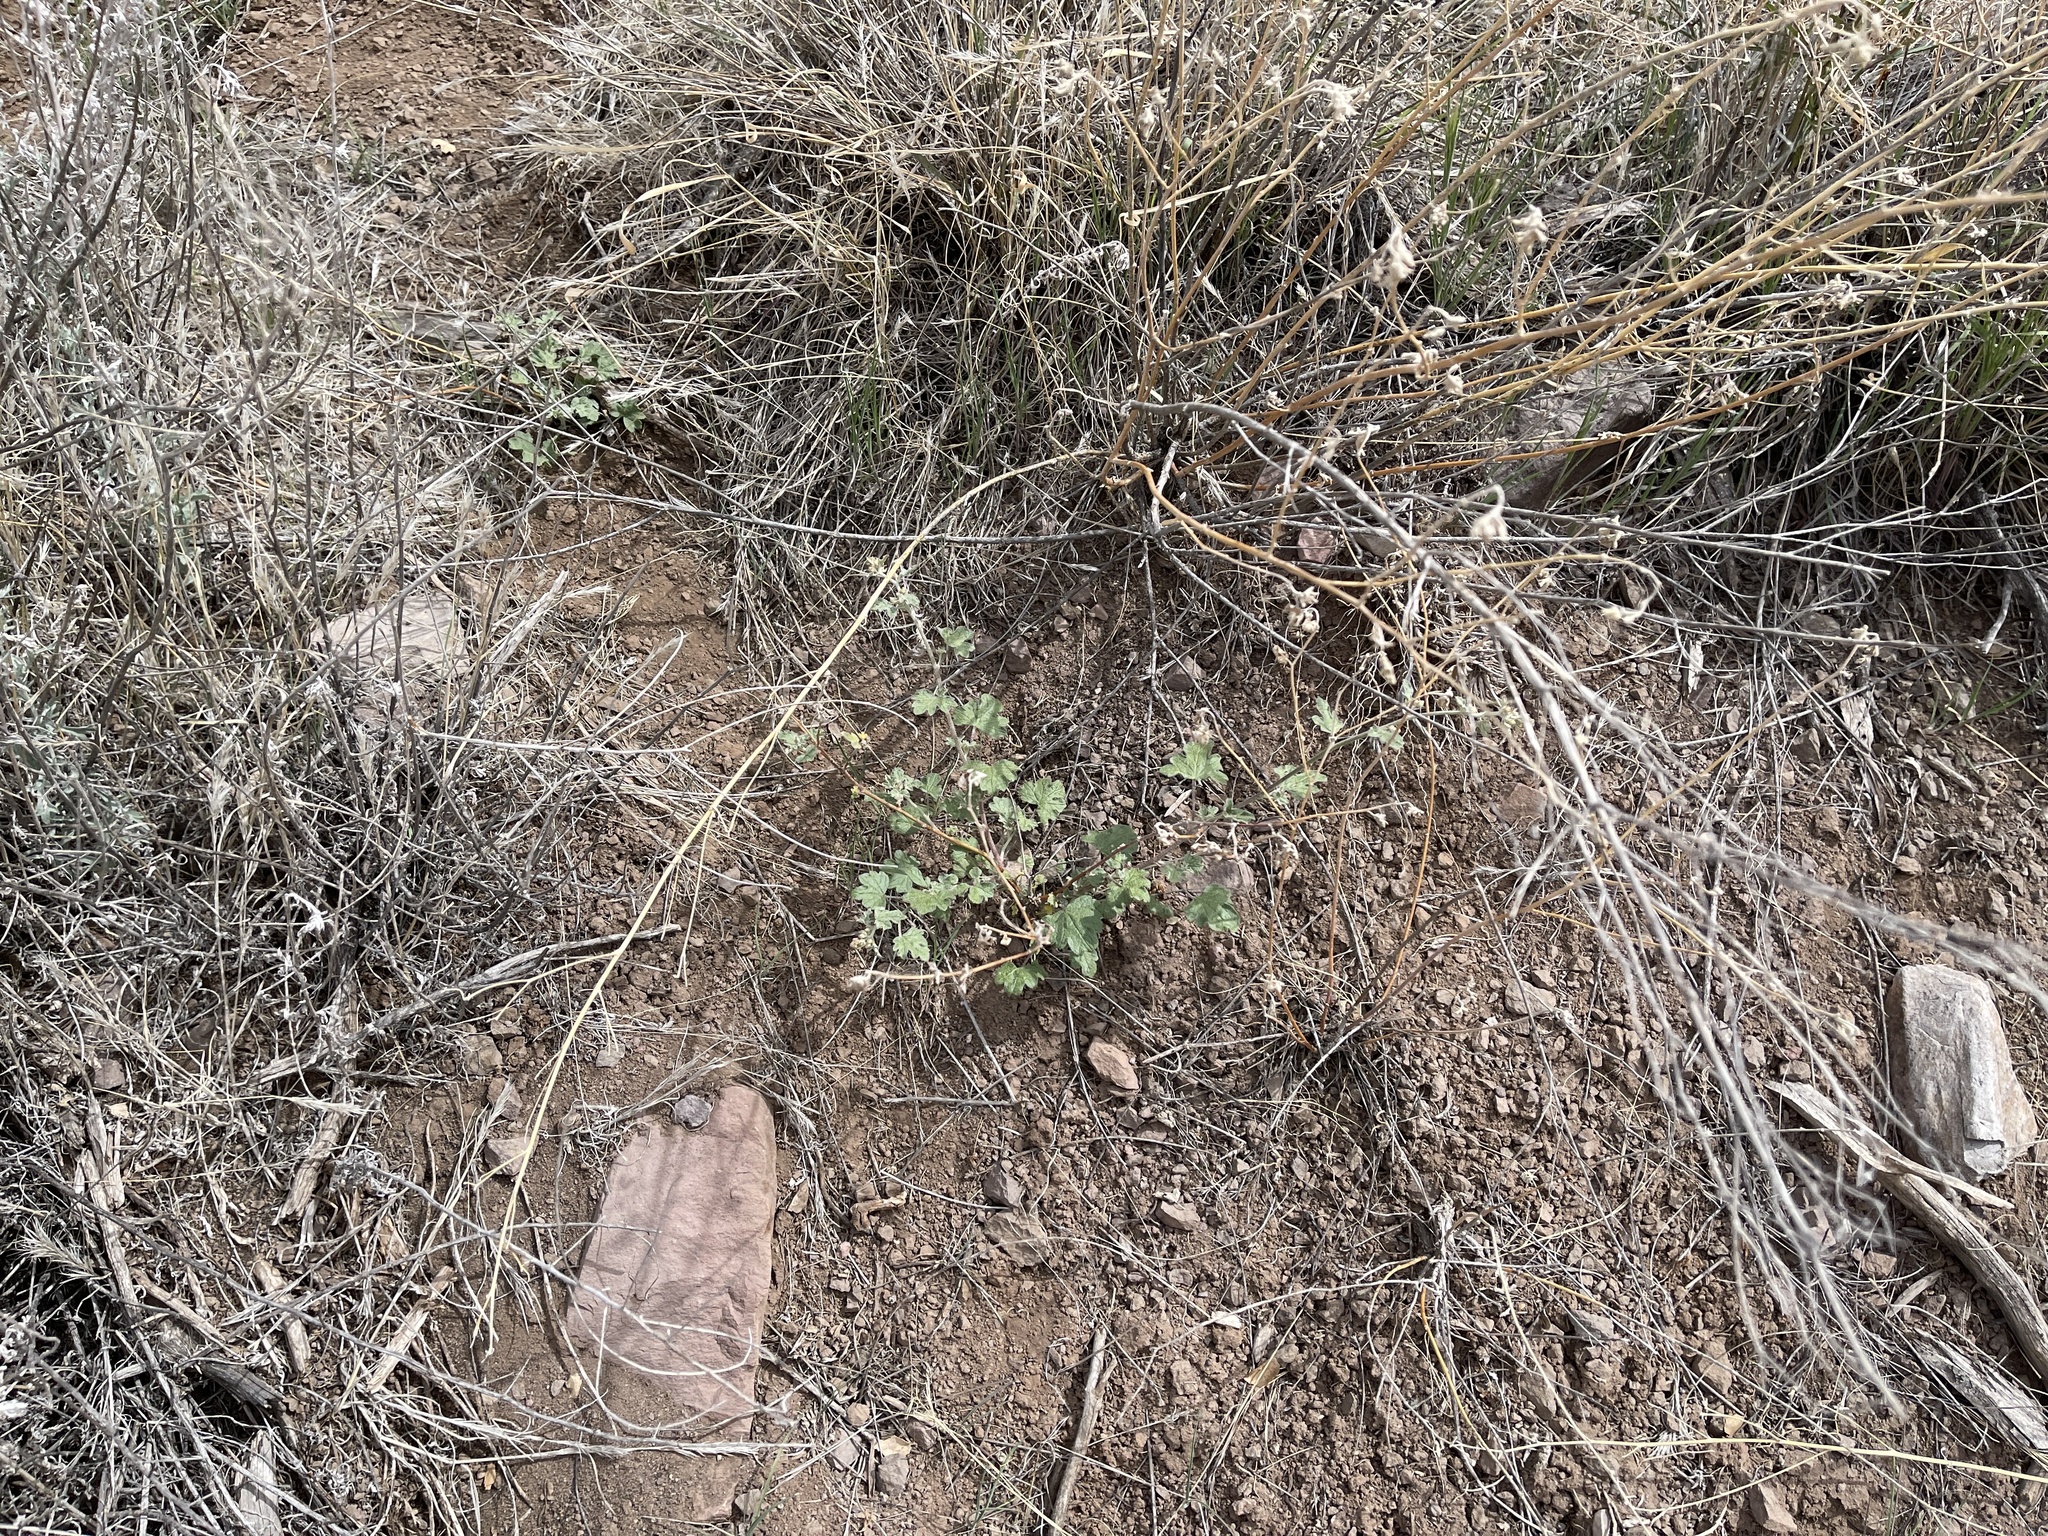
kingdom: Plantae
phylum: Tracheophyta
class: Magnoliopsida
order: Malvales
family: Malvaceae
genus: Sphaeralcea
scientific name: Sphaeralcea fendleri
